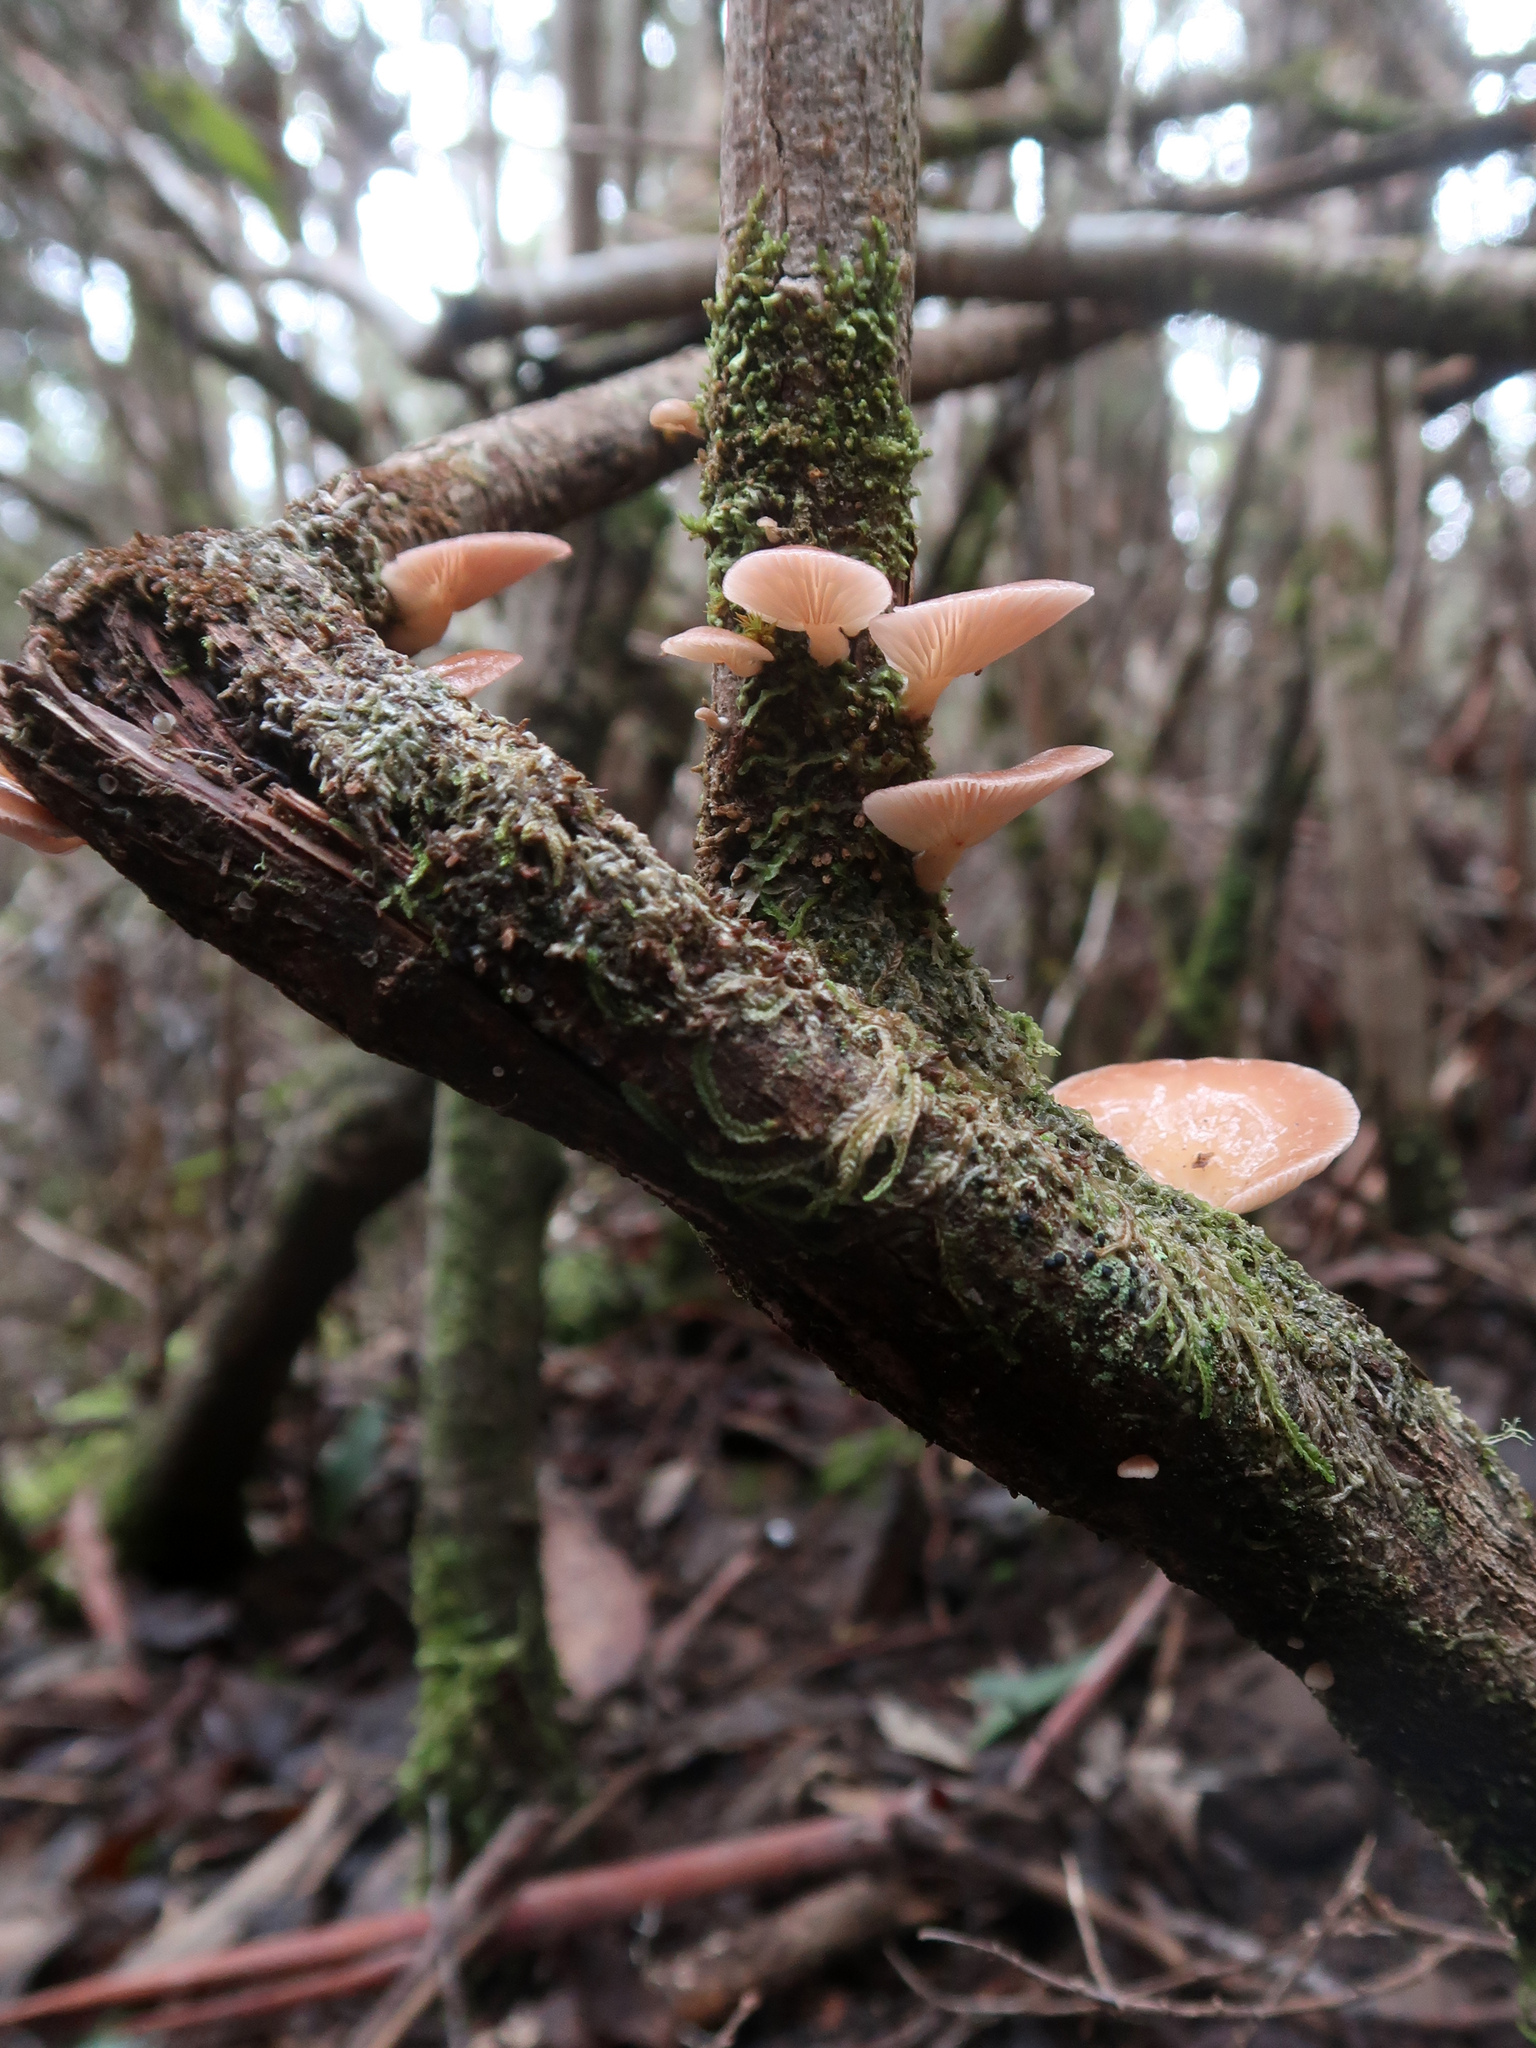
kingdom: Fungi
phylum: Basidiomycota
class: Agaricomycetes
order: Agaricales
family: Mycenaceae
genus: Panellus
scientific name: Panellus longinquus
